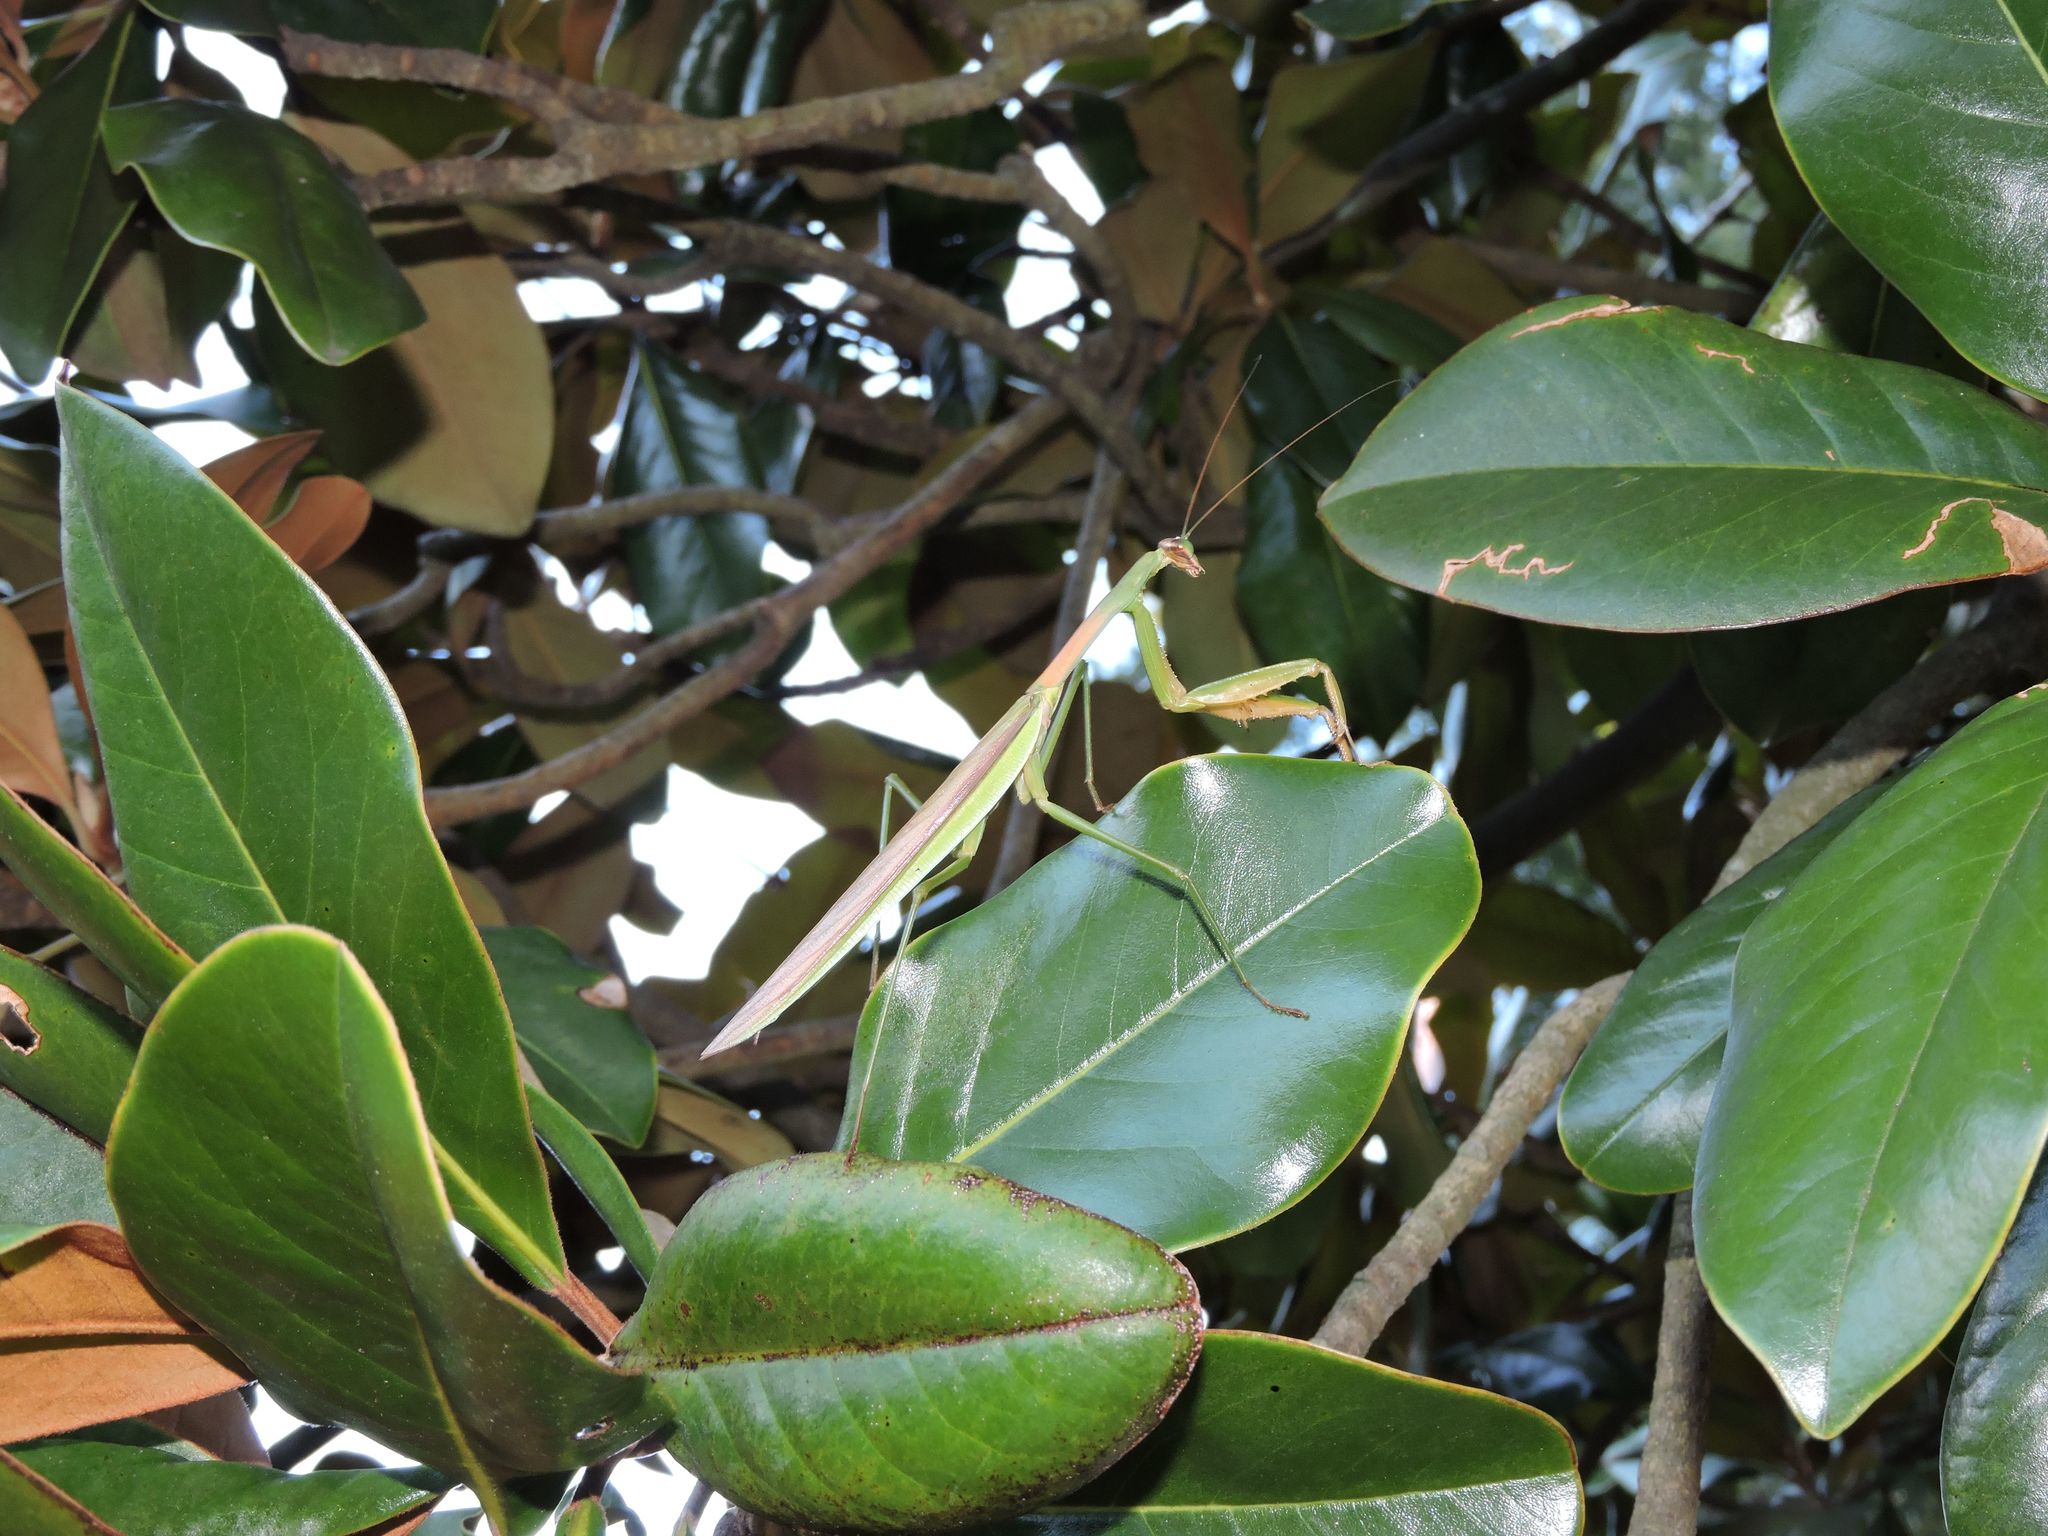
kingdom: Animalia
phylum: Arthropoda
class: Insecta
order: Mantodea
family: Mantidae
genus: Tenodera
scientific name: Tenodera sinensis
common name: Chinese mantis
